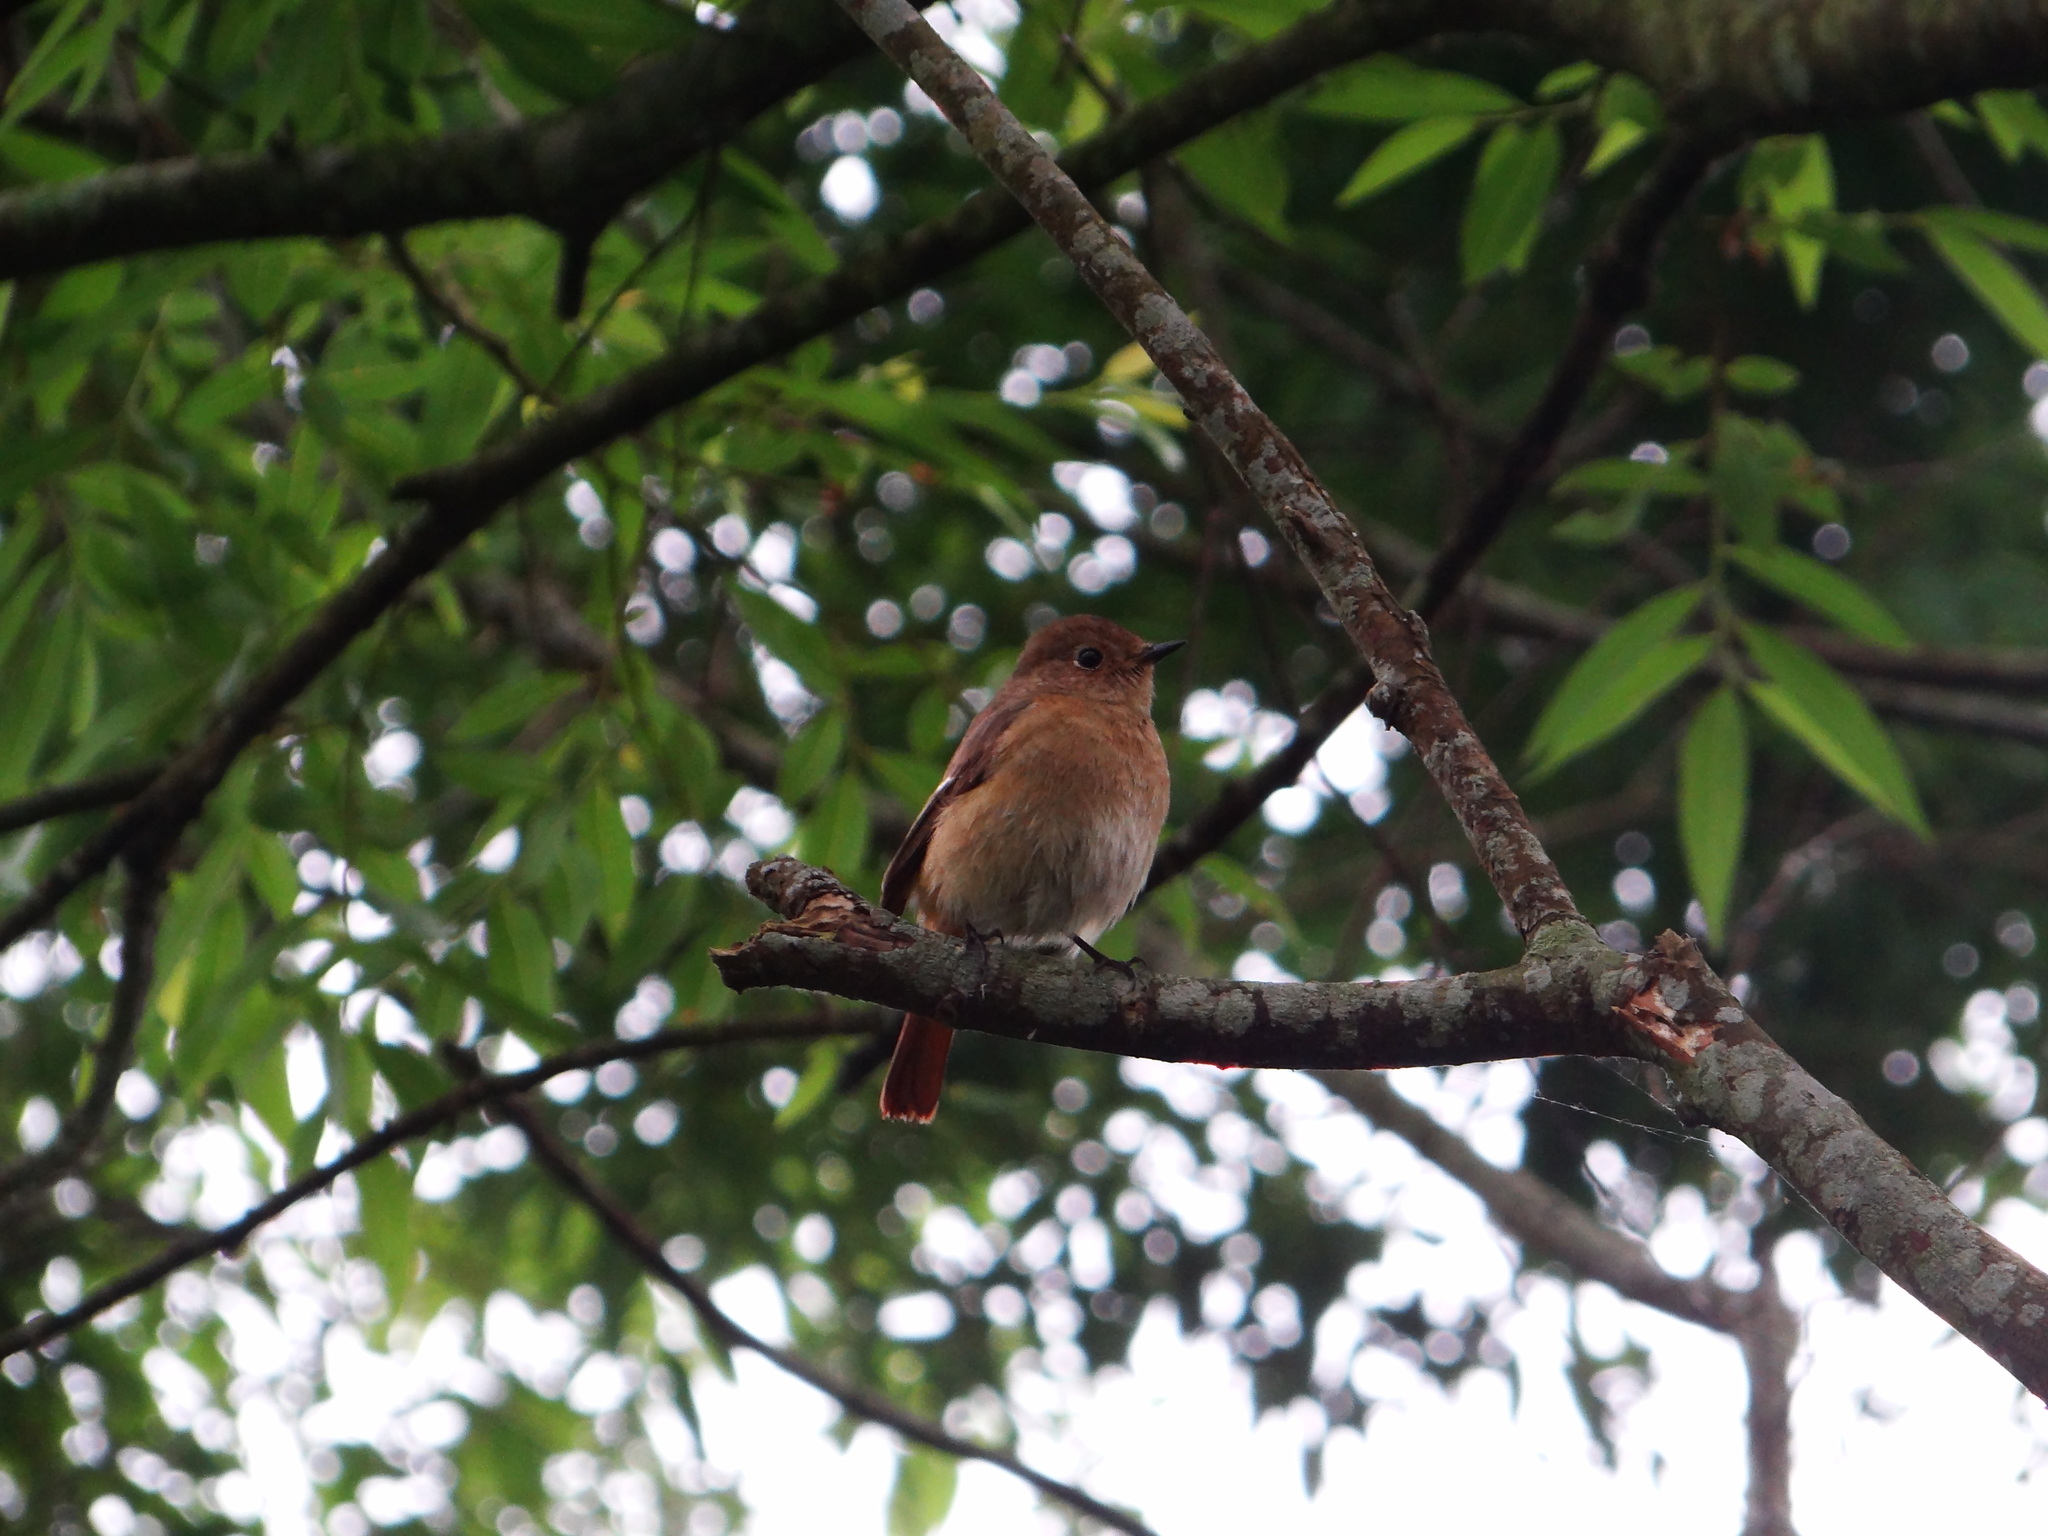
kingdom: Animalia
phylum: Chordata
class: Aves
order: Passeriformes
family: Muscicapidae
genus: Phoenicurus
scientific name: Phoenicurus auroreus
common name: Daurian redstart
